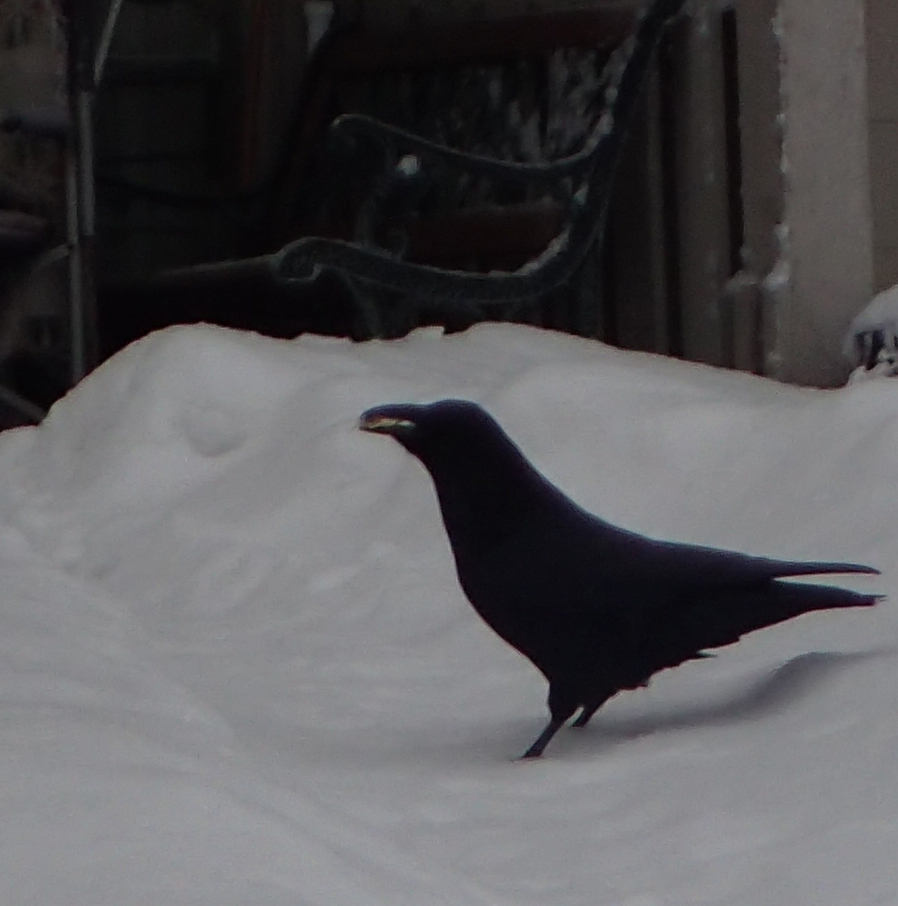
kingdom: Animalia
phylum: Chordata
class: Aves
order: Passeriformes
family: Corvidae
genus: Corvus
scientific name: Corvus corax
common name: Common raven
